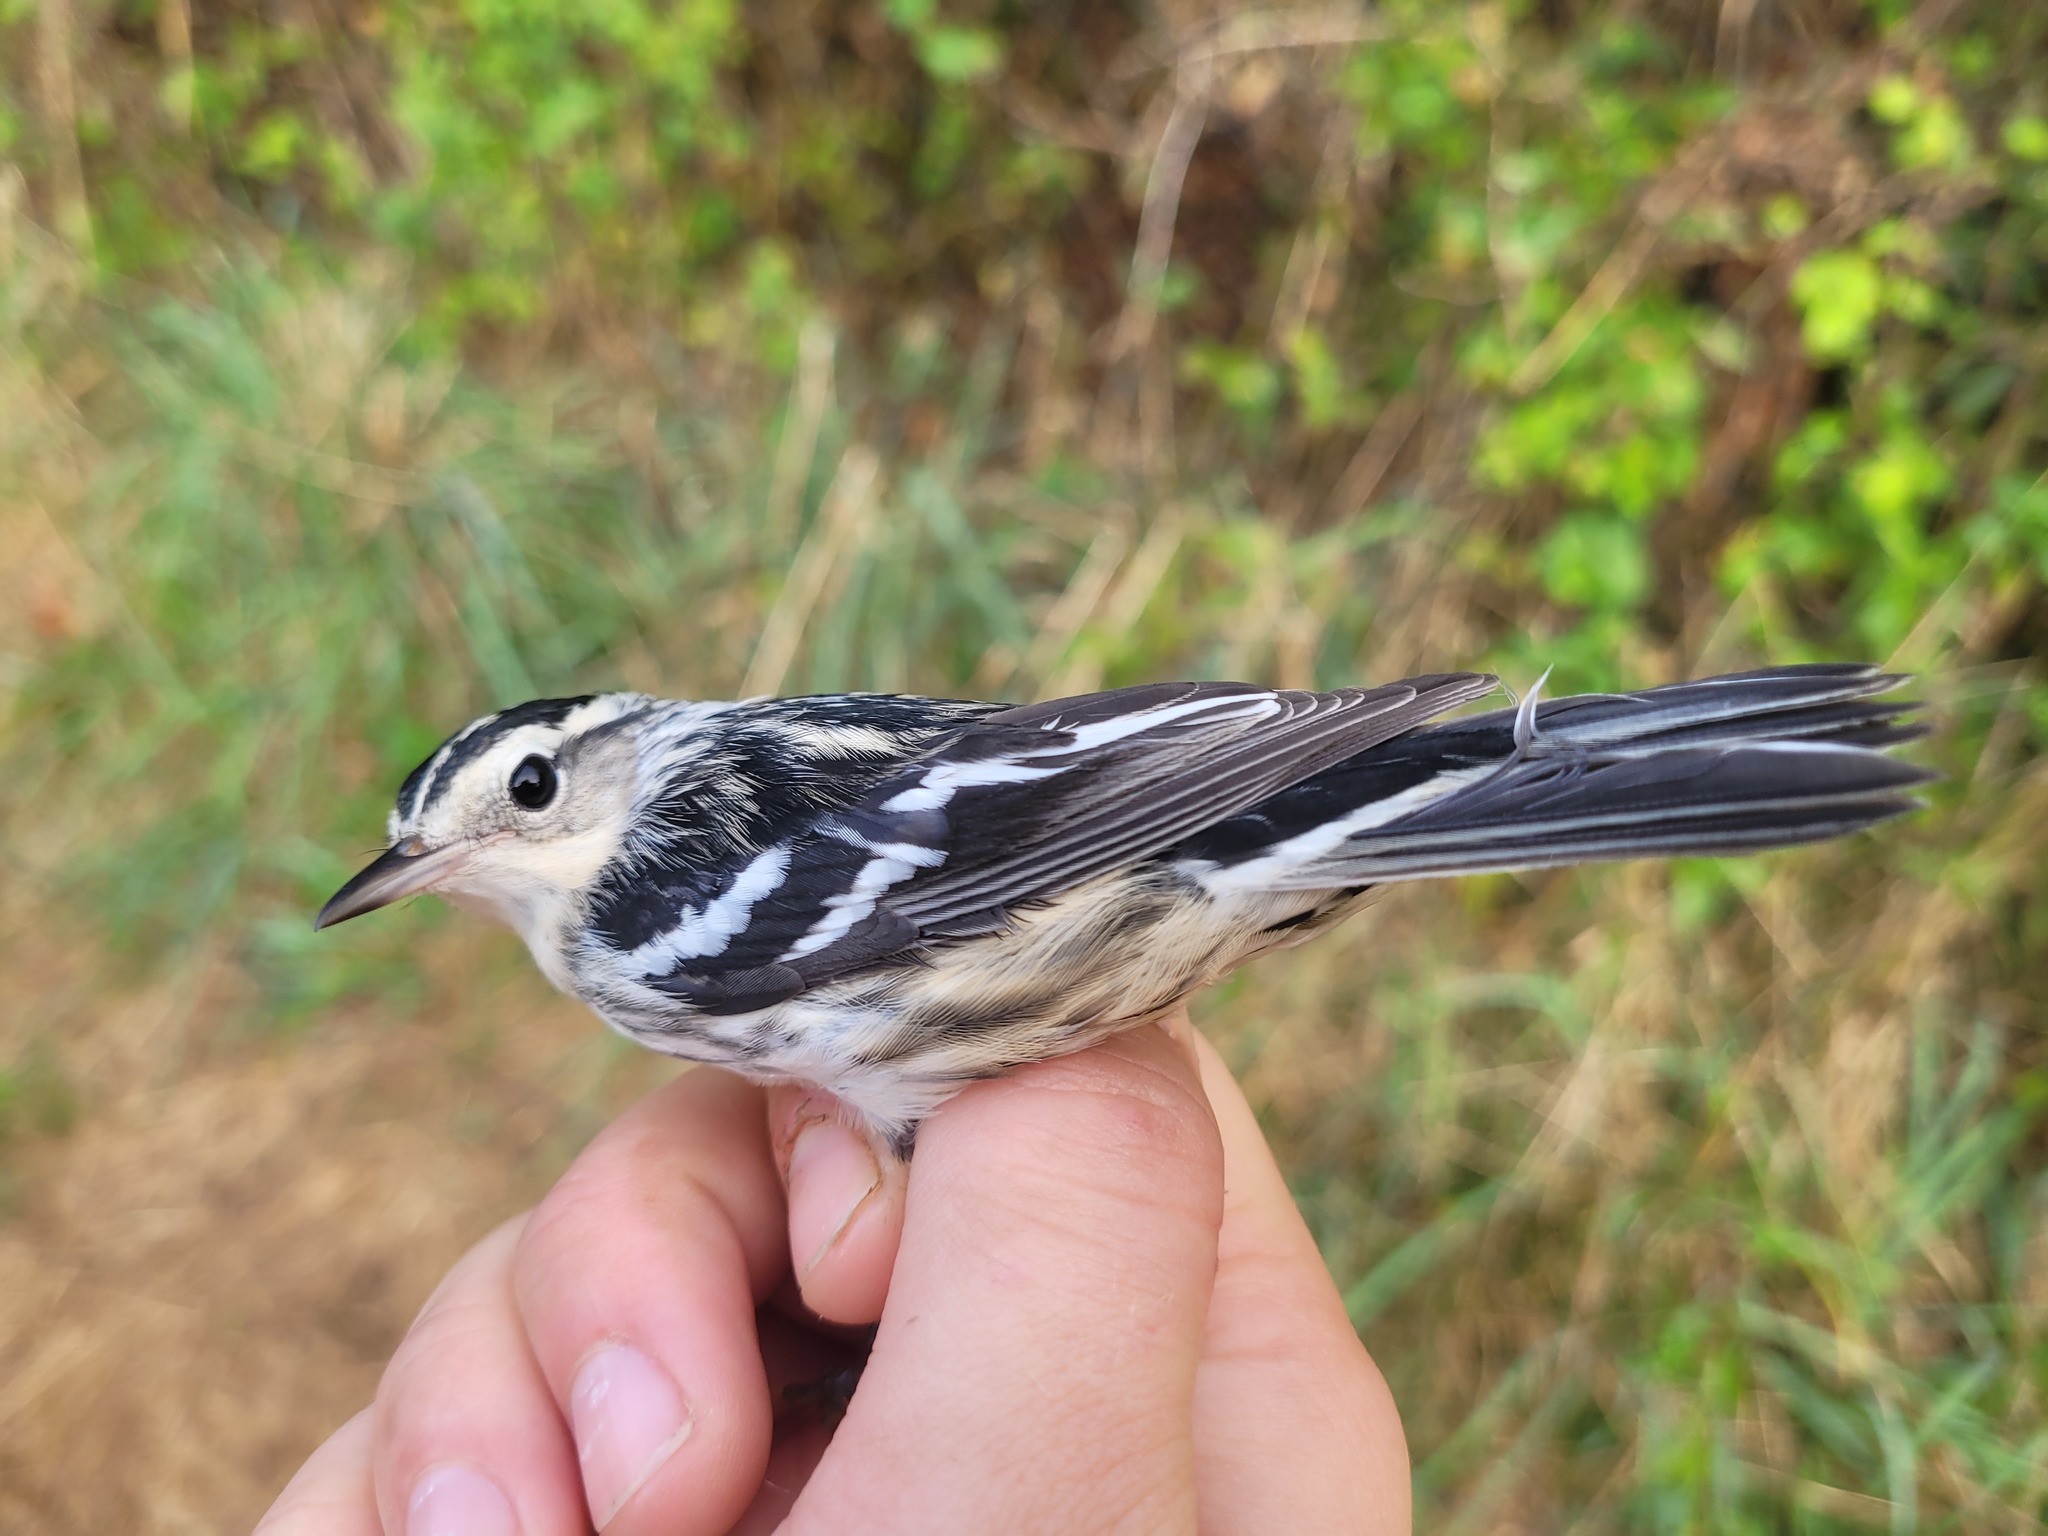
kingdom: Animalia
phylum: Chordata
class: Aves
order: Passeriformes
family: Parulidae
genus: Mniotilta
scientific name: Mniotilta varia
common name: Black-and-white warbler
